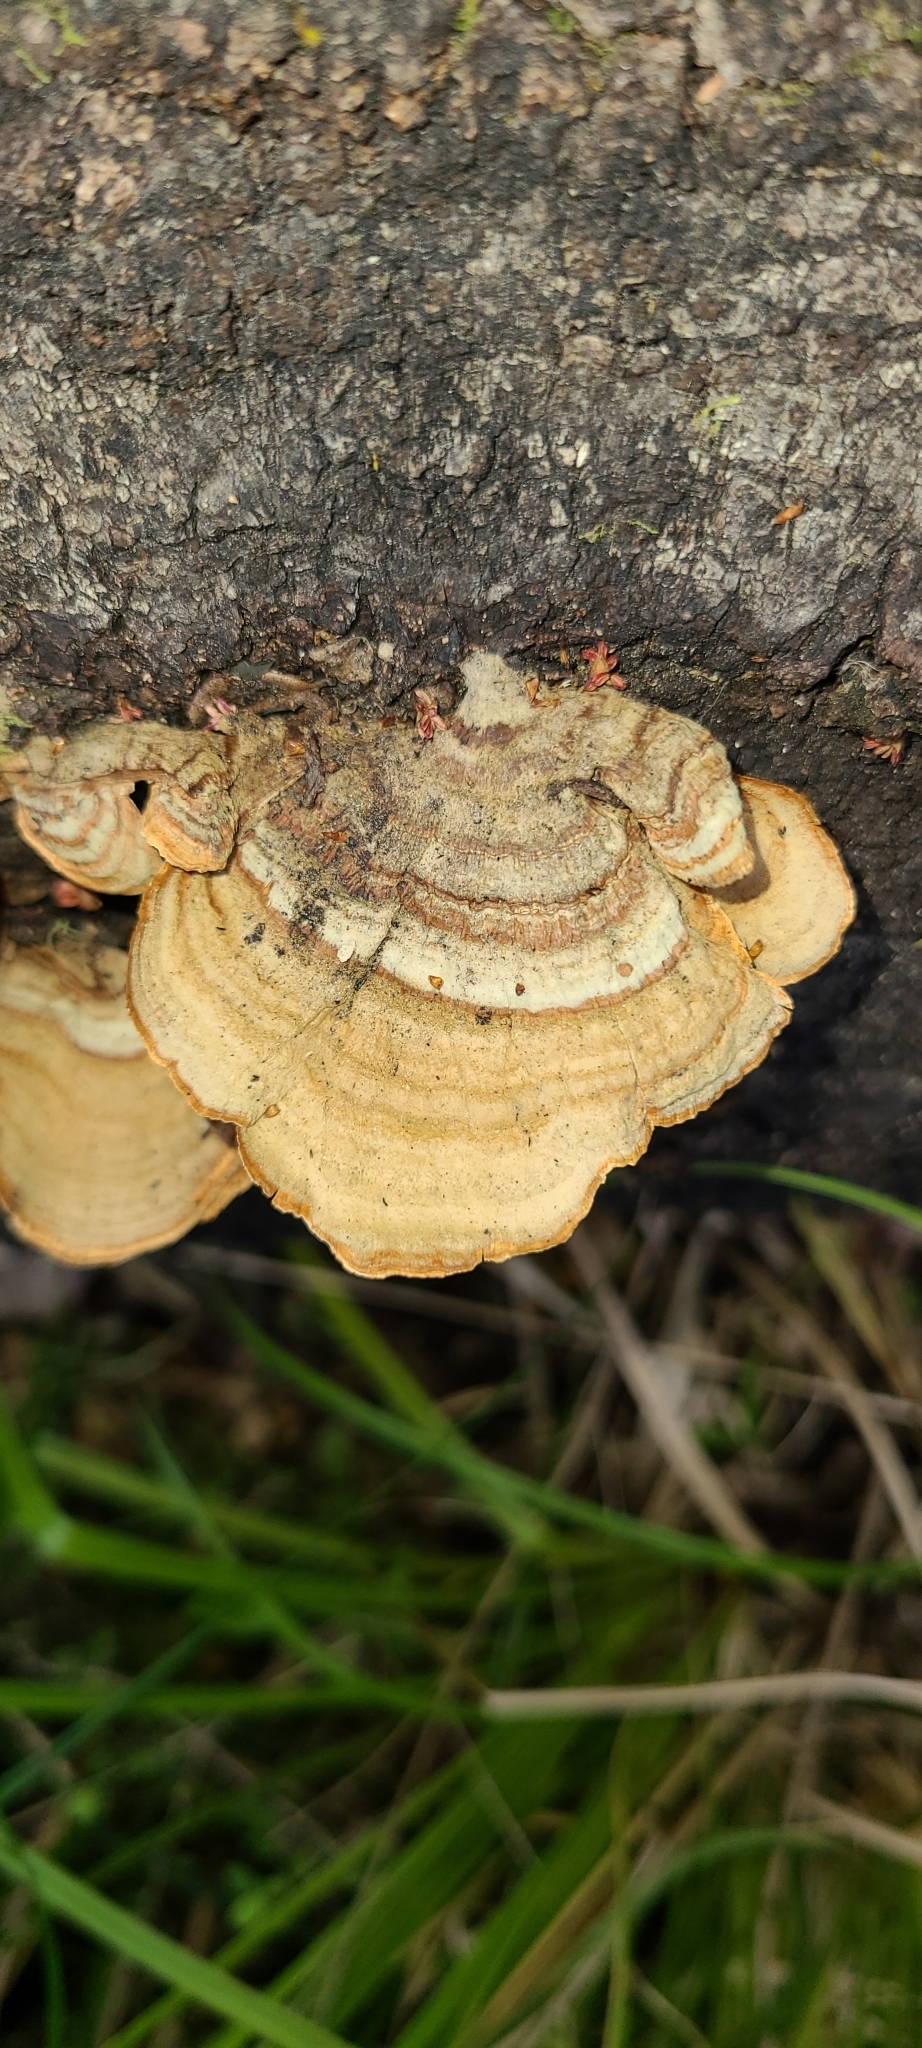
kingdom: Fungi
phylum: Basidiomycota
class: Agaricomycetes
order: Russulales
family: Stereaceae
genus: Stereum
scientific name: Stereum versicolor
